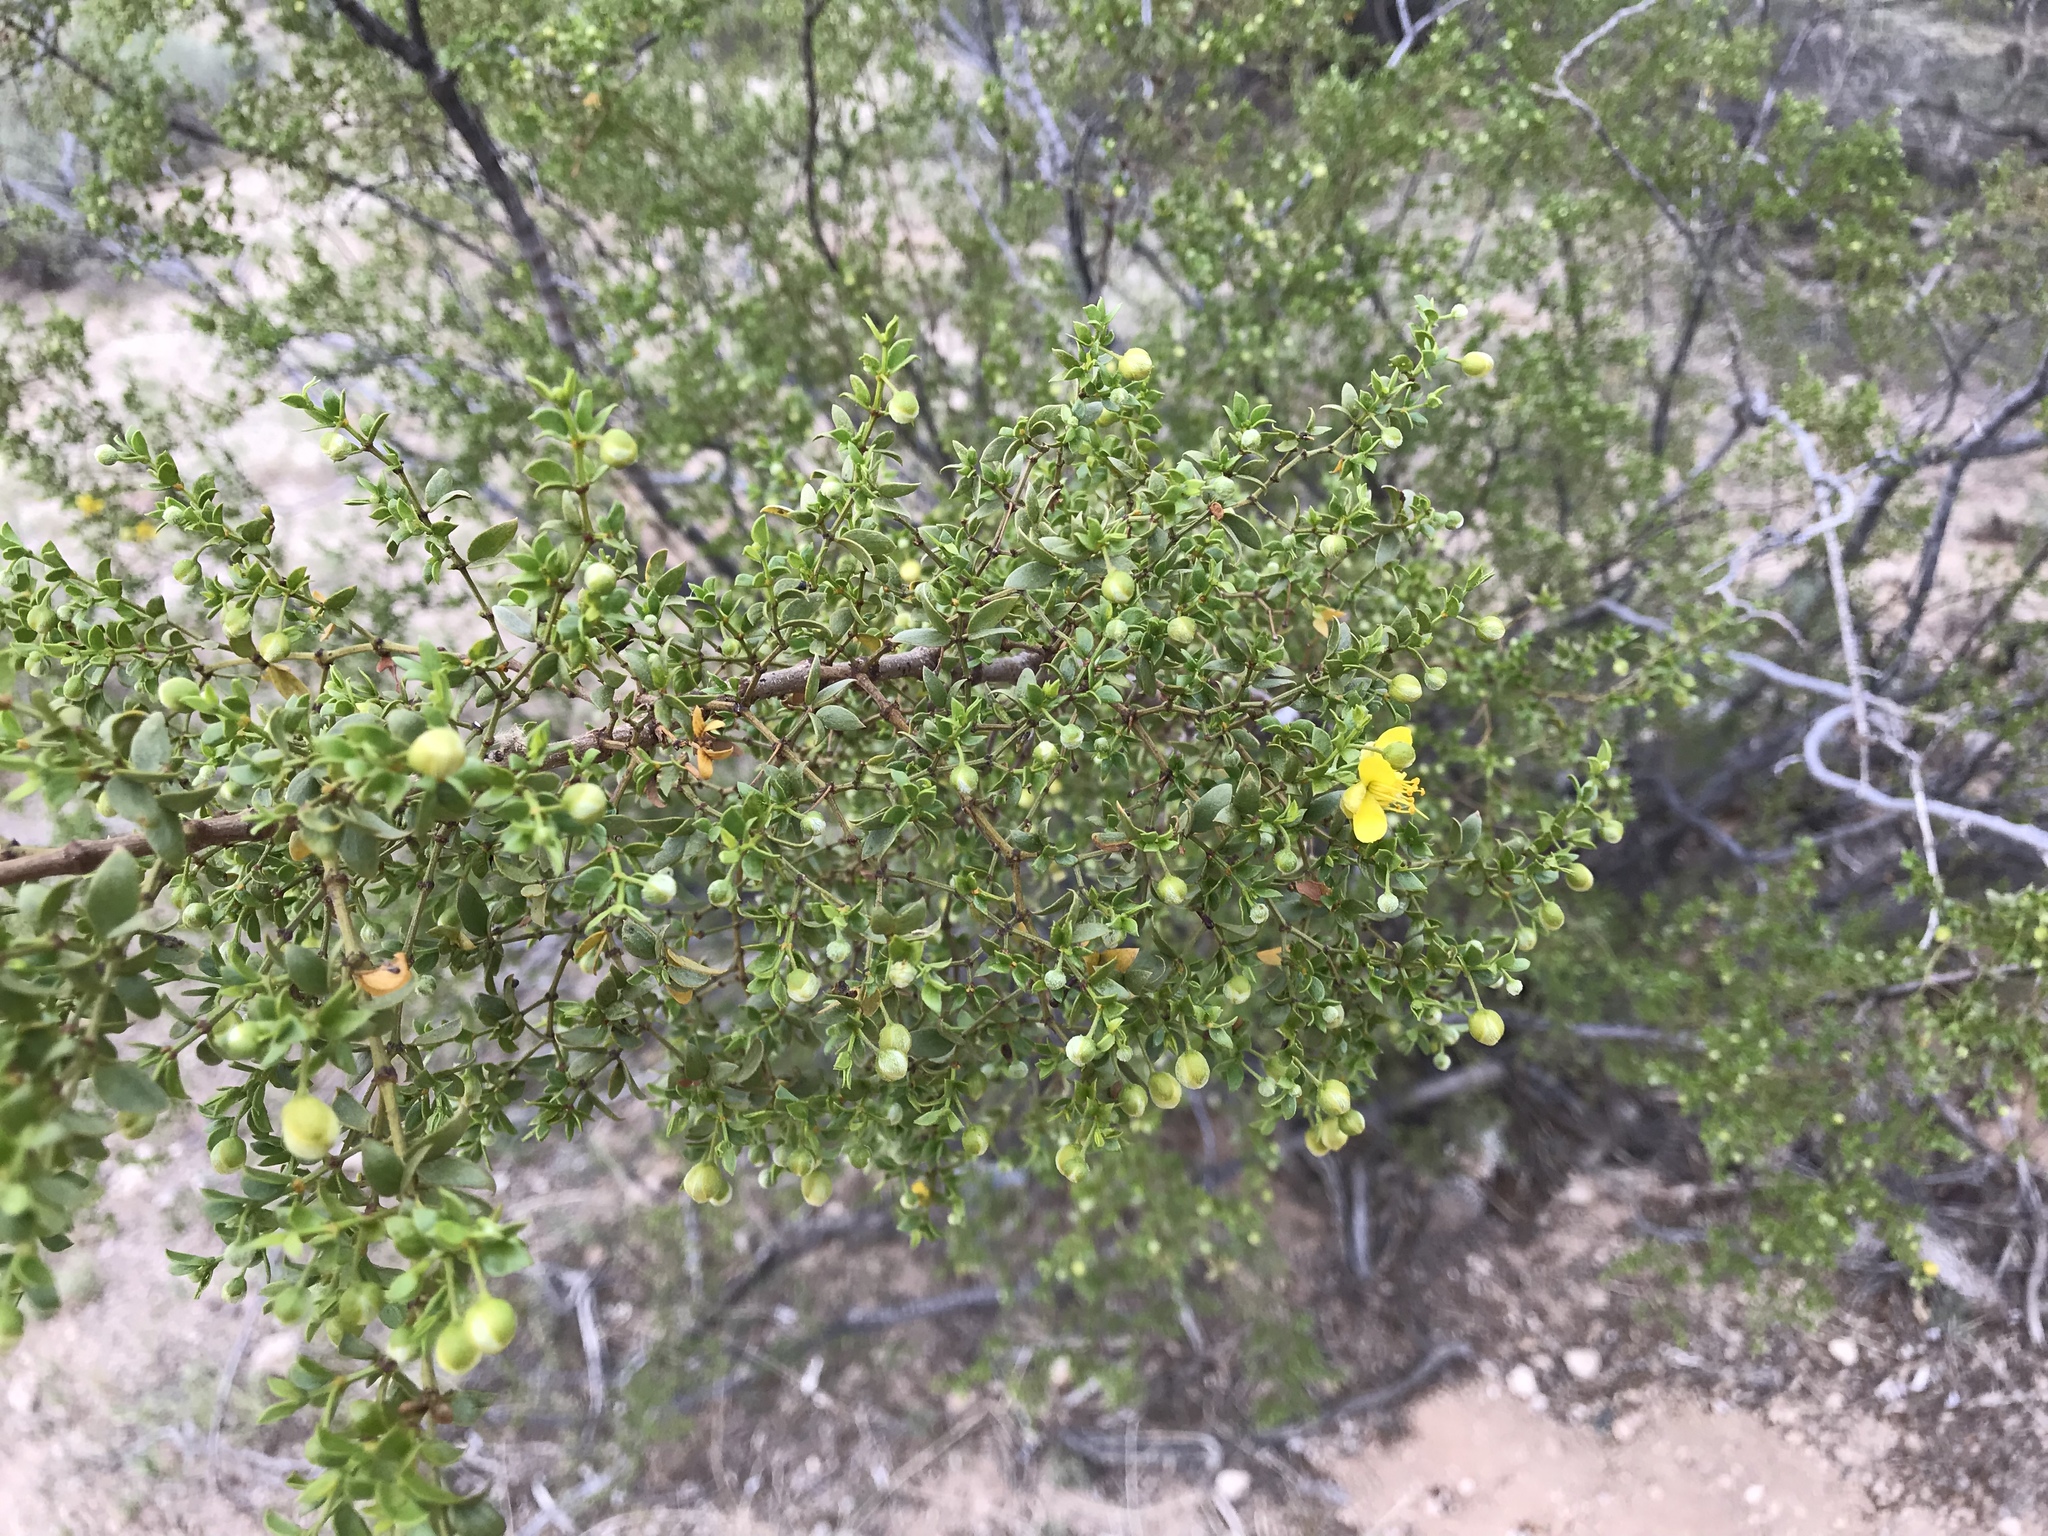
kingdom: Plantae
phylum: Tracheophyta
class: Magnoliopsida
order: Zygophyllales
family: Zygophyllaceae
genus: Larrea
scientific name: Larrea tridentata
